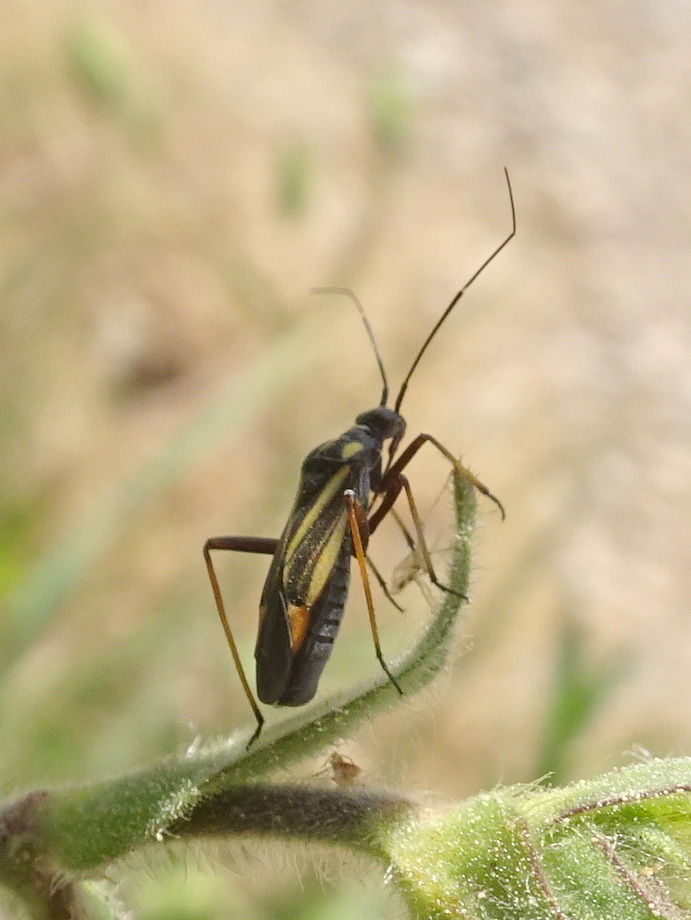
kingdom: Animalia
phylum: Arthropoda
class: Insecta
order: Hemiptera
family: Miridae
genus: Hadrodemus
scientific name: Hadrodemus m-flavum
